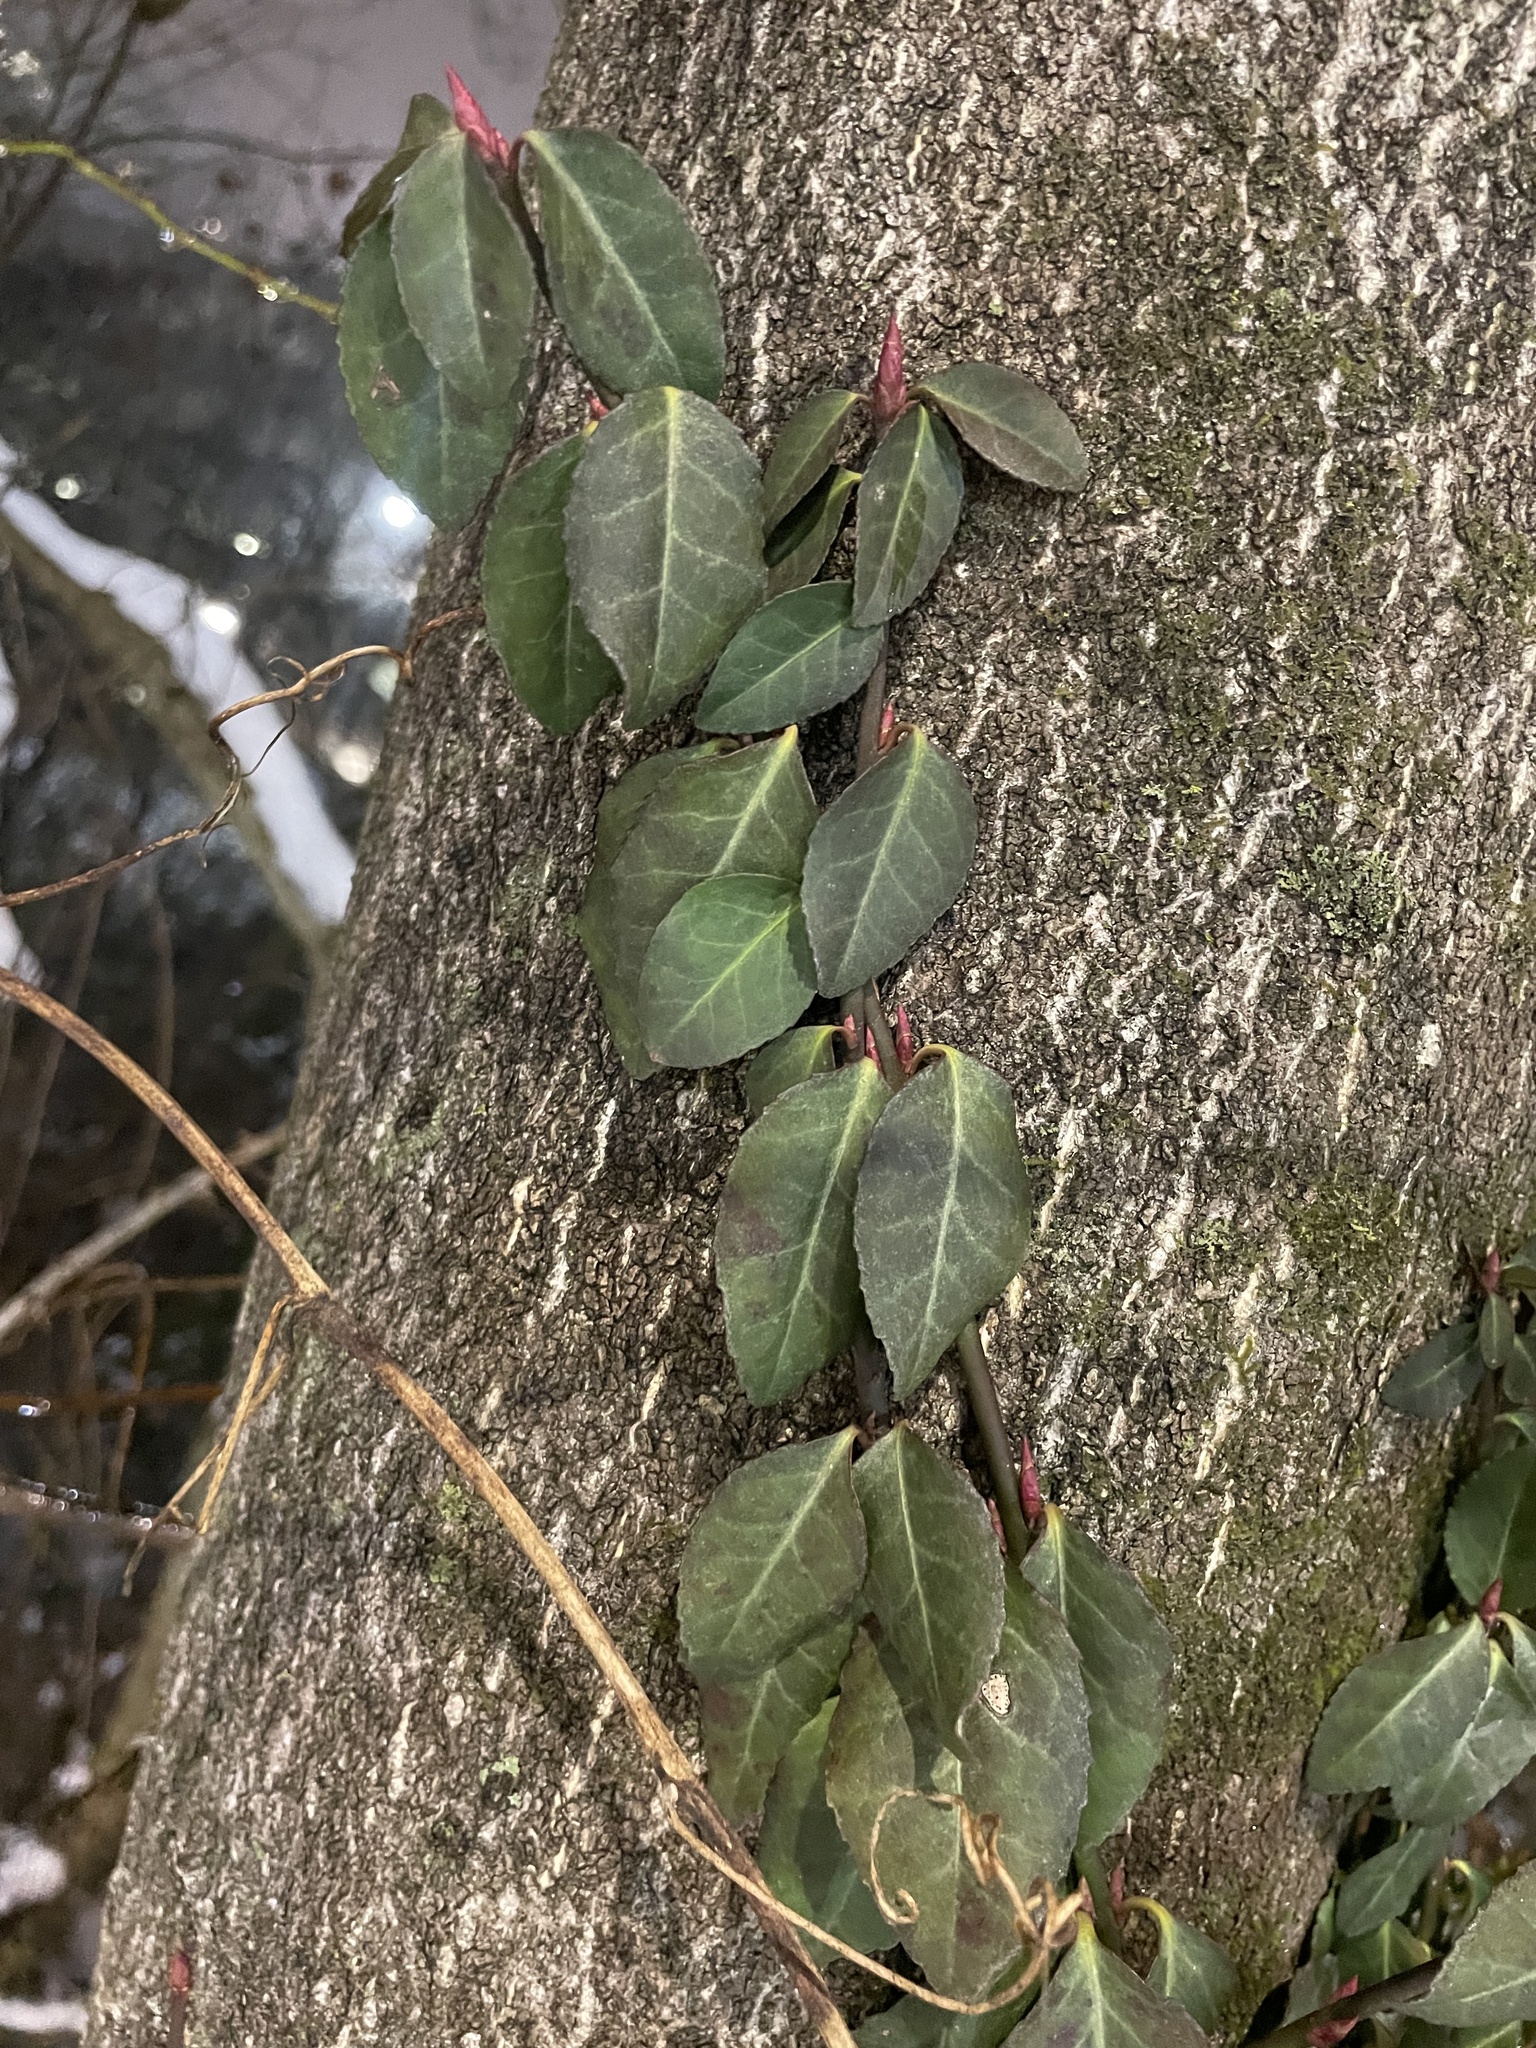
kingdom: Plantae
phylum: Tracheophyta
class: Magnoliopsida
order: Celastrales
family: Celastraceae
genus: Euonymus
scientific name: Euonymus fortunei
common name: Climbing euonymus
